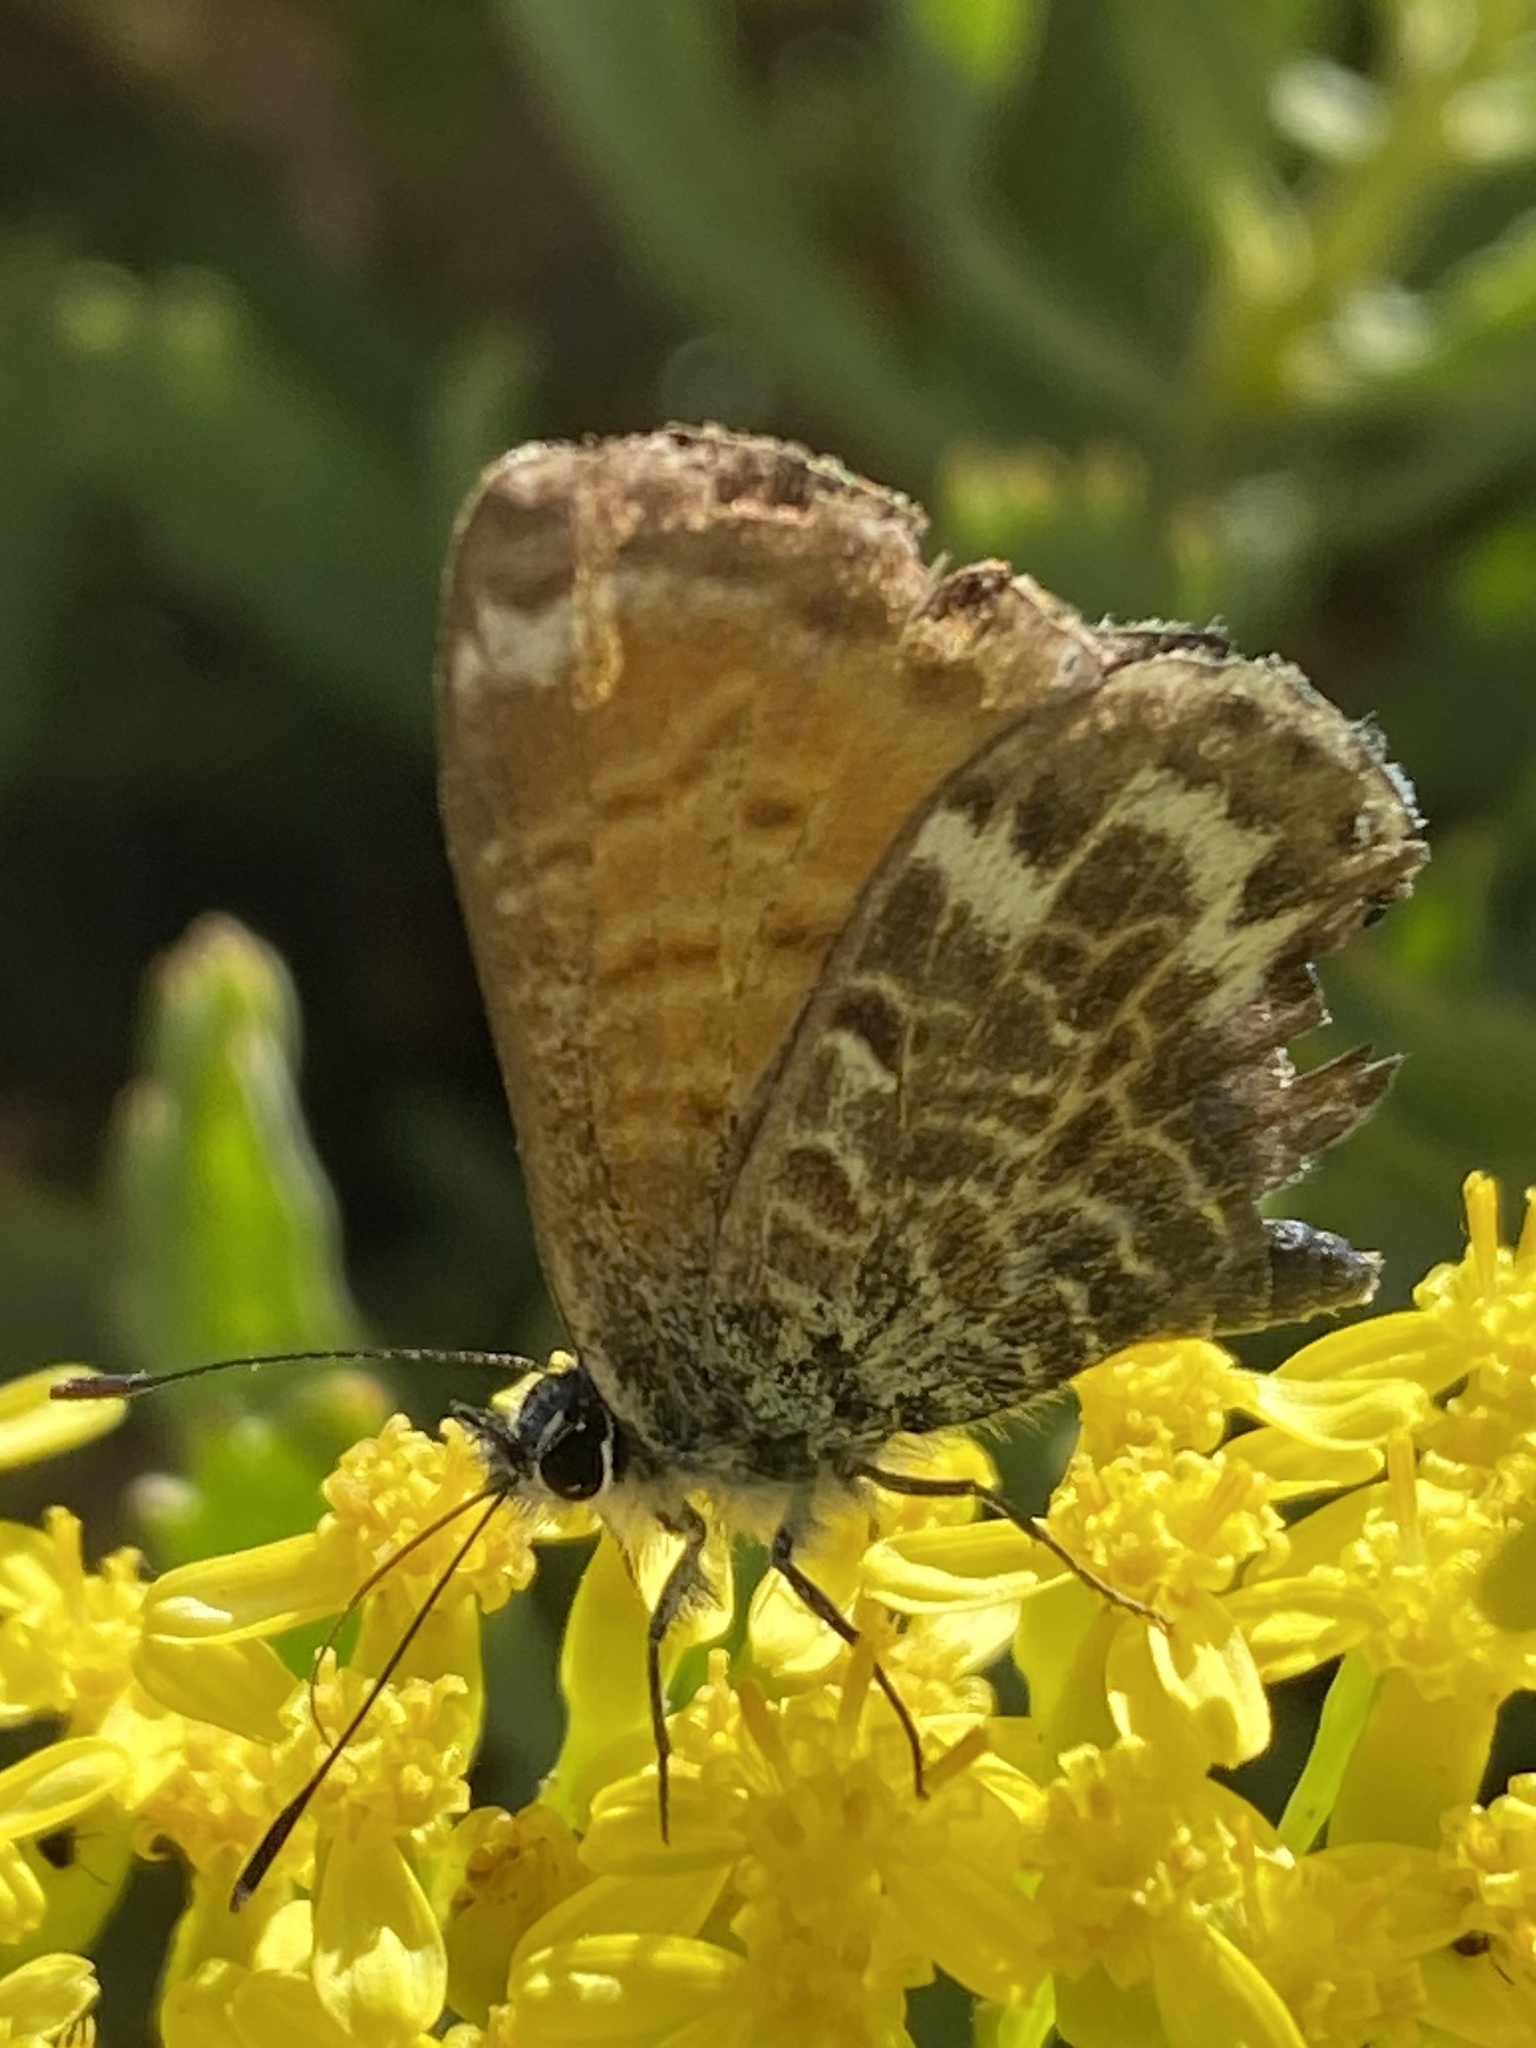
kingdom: Animalia
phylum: Arthropoda
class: Insecta
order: Lepidoptera
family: Lycaenidae
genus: Cyclyrius
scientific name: Cyclyrius webbianus
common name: Canary blue
